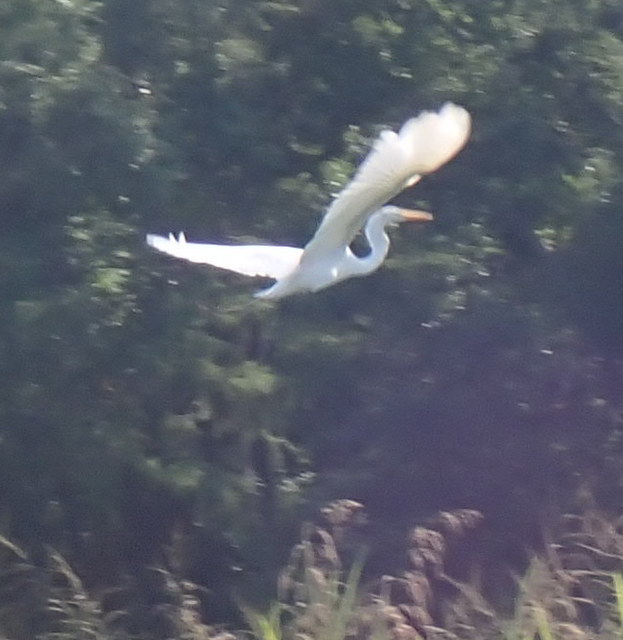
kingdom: Animalia
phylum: Chordata
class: Aves
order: Pelecaniformes
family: Ardeidae
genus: Ardea
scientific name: Ardea alba
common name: Great egret
